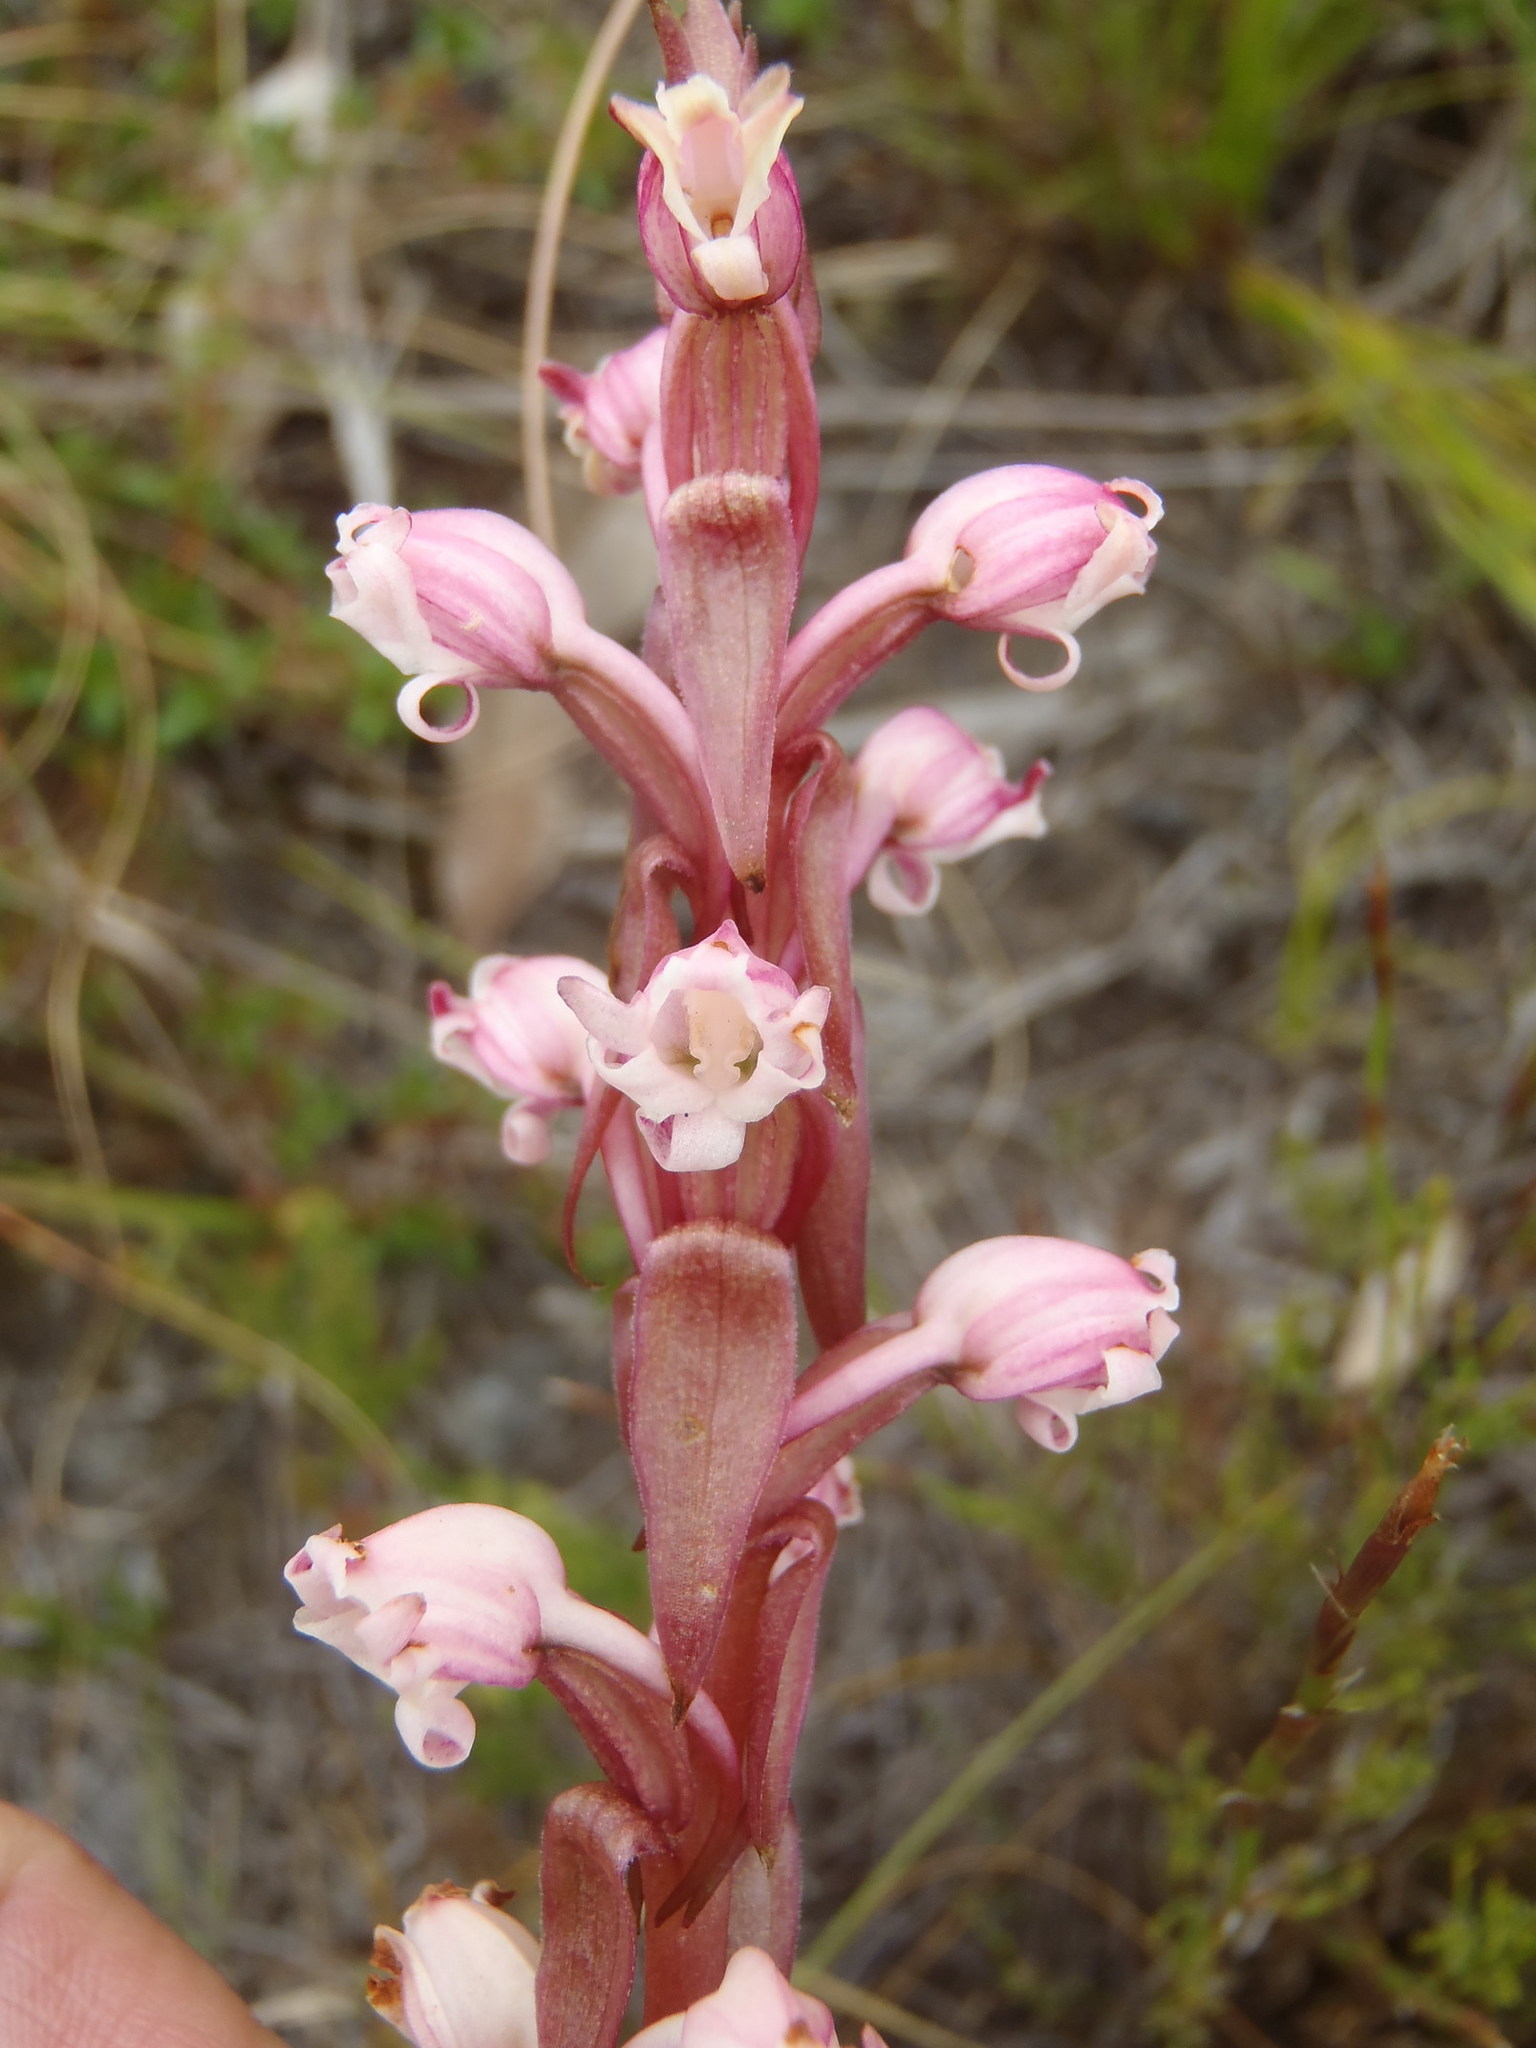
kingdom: Plantae
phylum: Tracheophyta
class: Liliopsida
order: Asparagales
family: Orchidaceae
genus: Satyrium
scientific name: Satyrium
